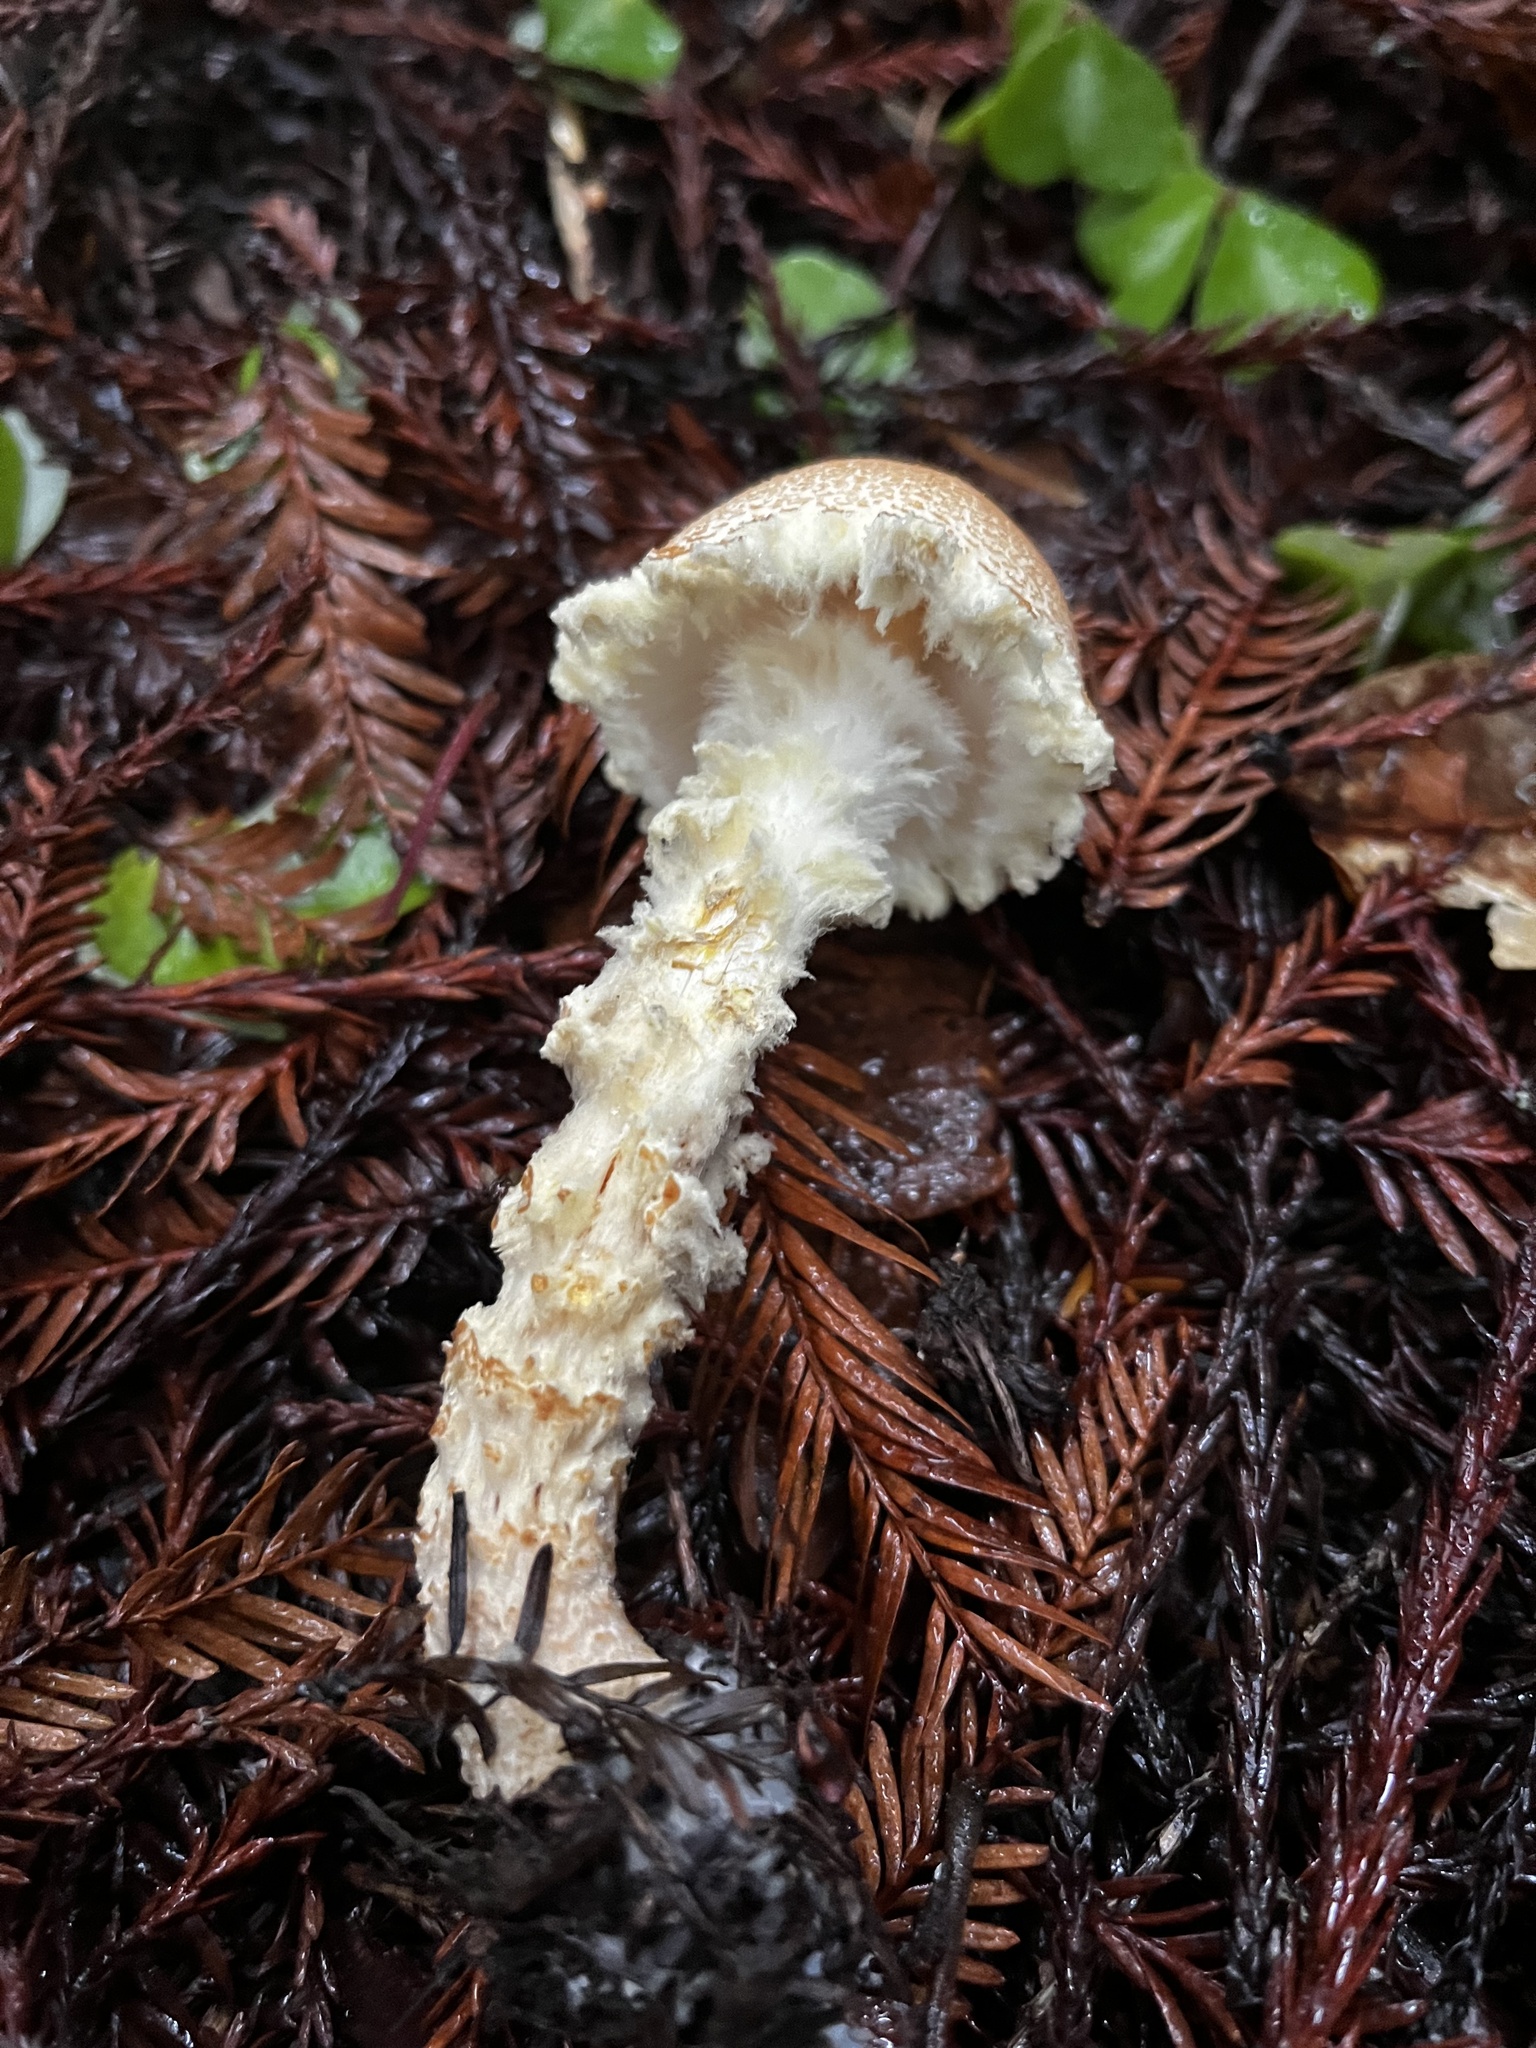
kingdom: Fungi
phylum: Basidiomycota
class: Agaricomycetes
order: Agaricales
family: Agaricaceae
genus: Lepiota
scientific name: Lepiota magnispora
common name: Yellowfoot dapperling
